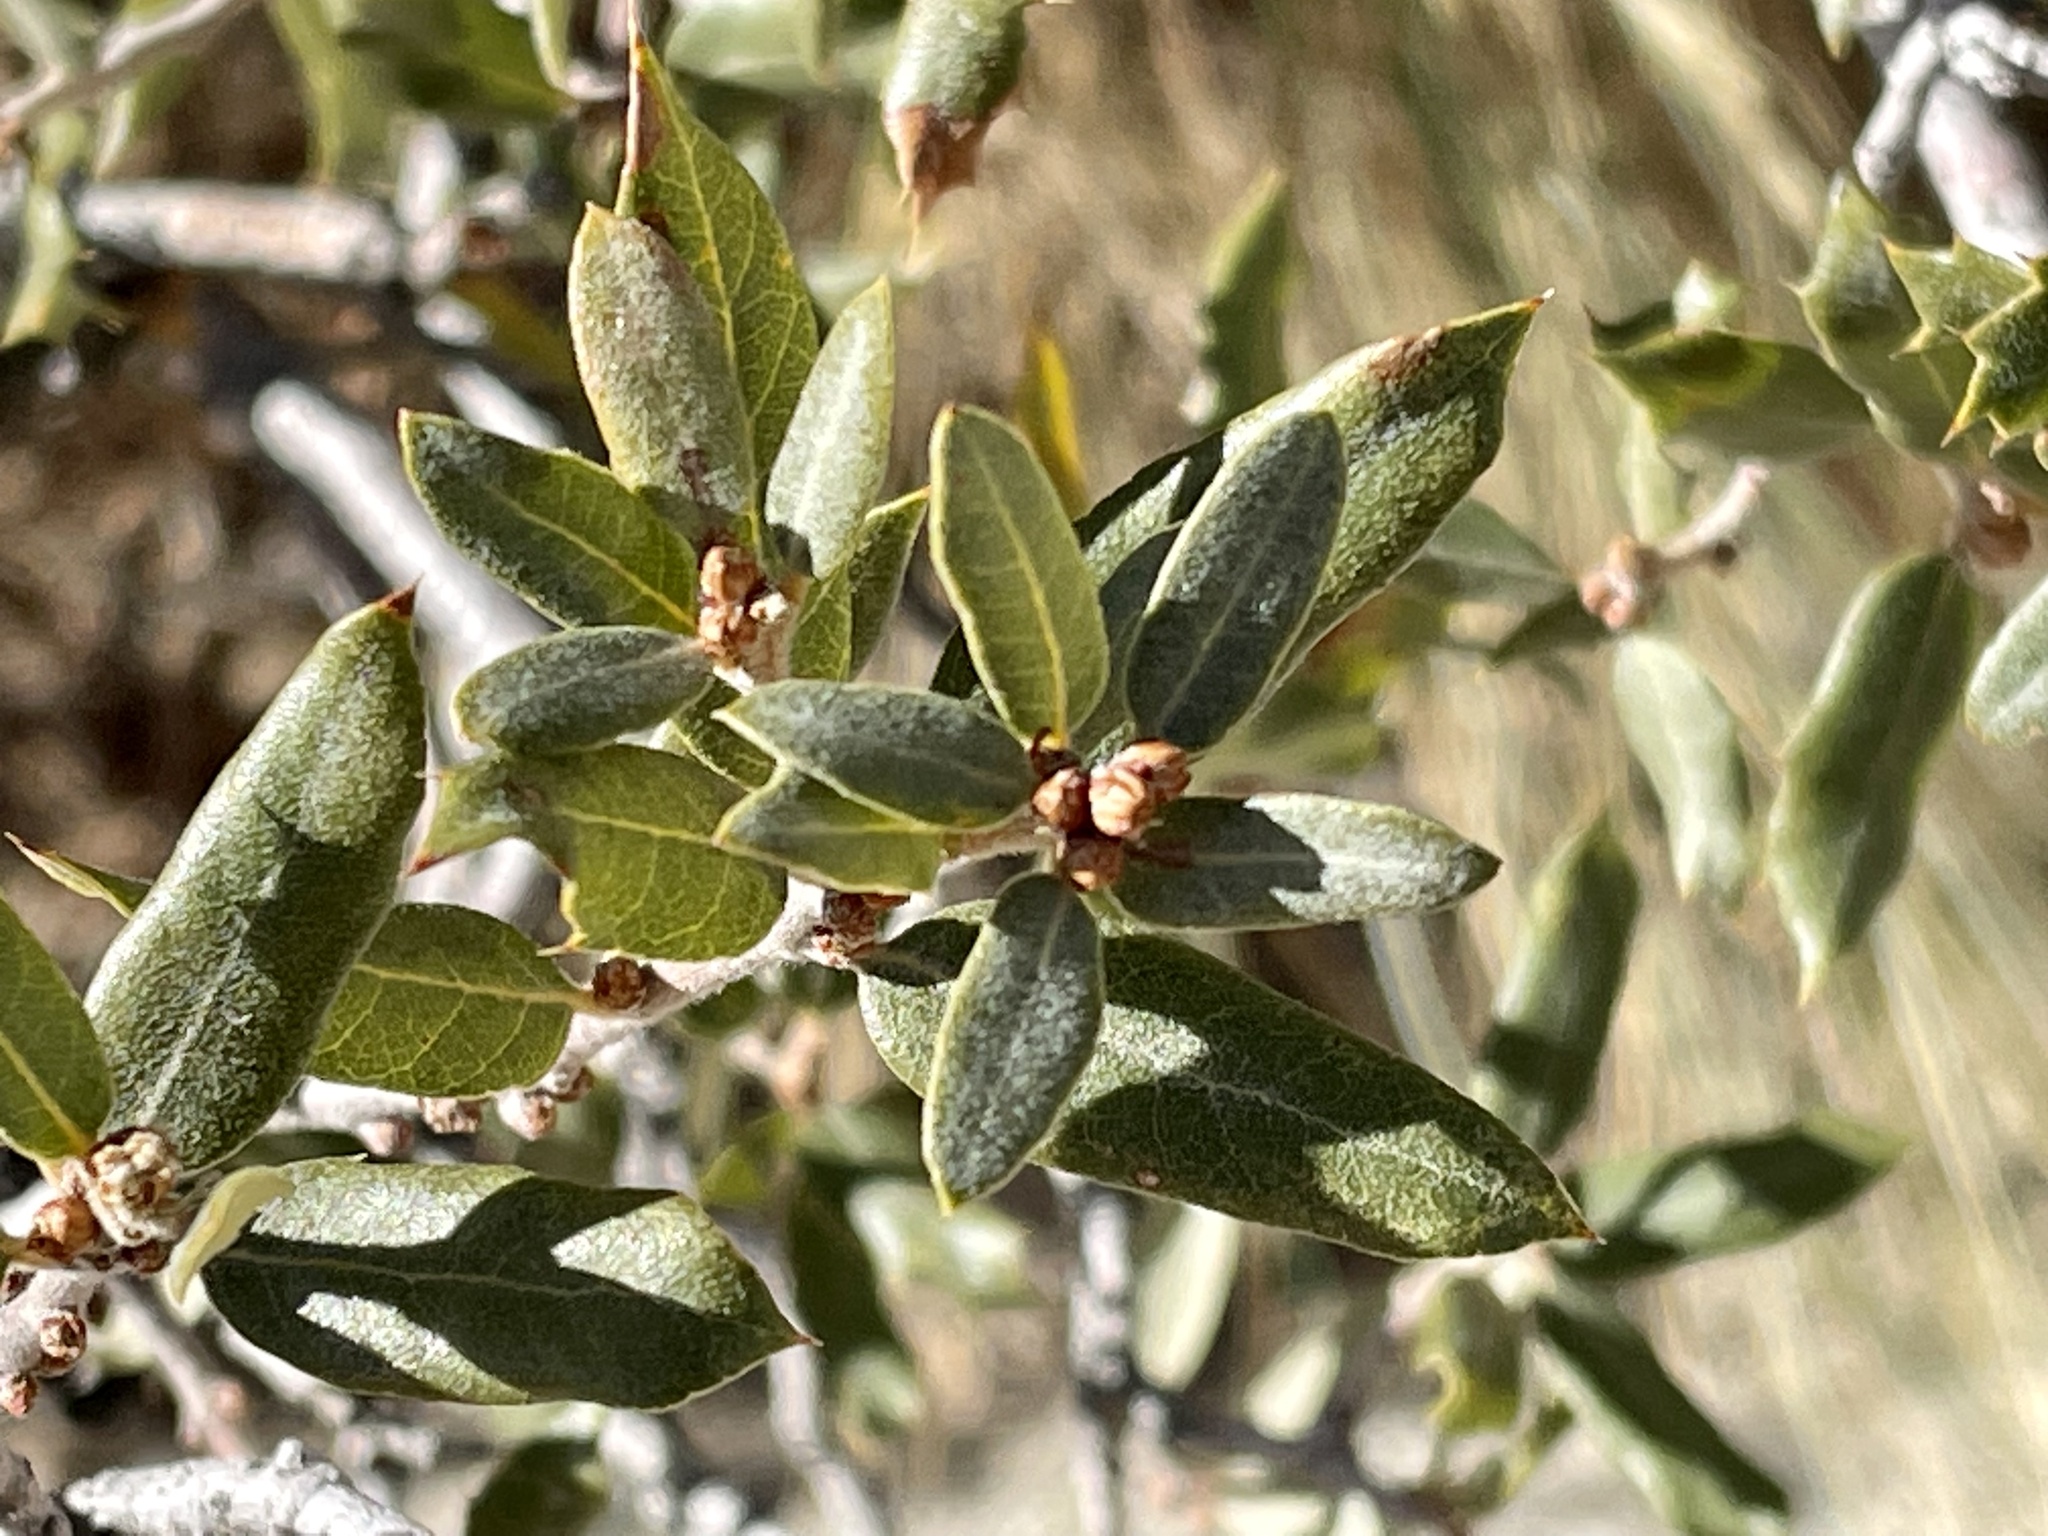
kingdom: Plantae
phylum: Tracheophyta
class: Magnoliopsida
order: Fagales
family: Fagaceae
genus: Quercus
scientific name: Quercus cornelius-mulleri
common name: Muller oak
